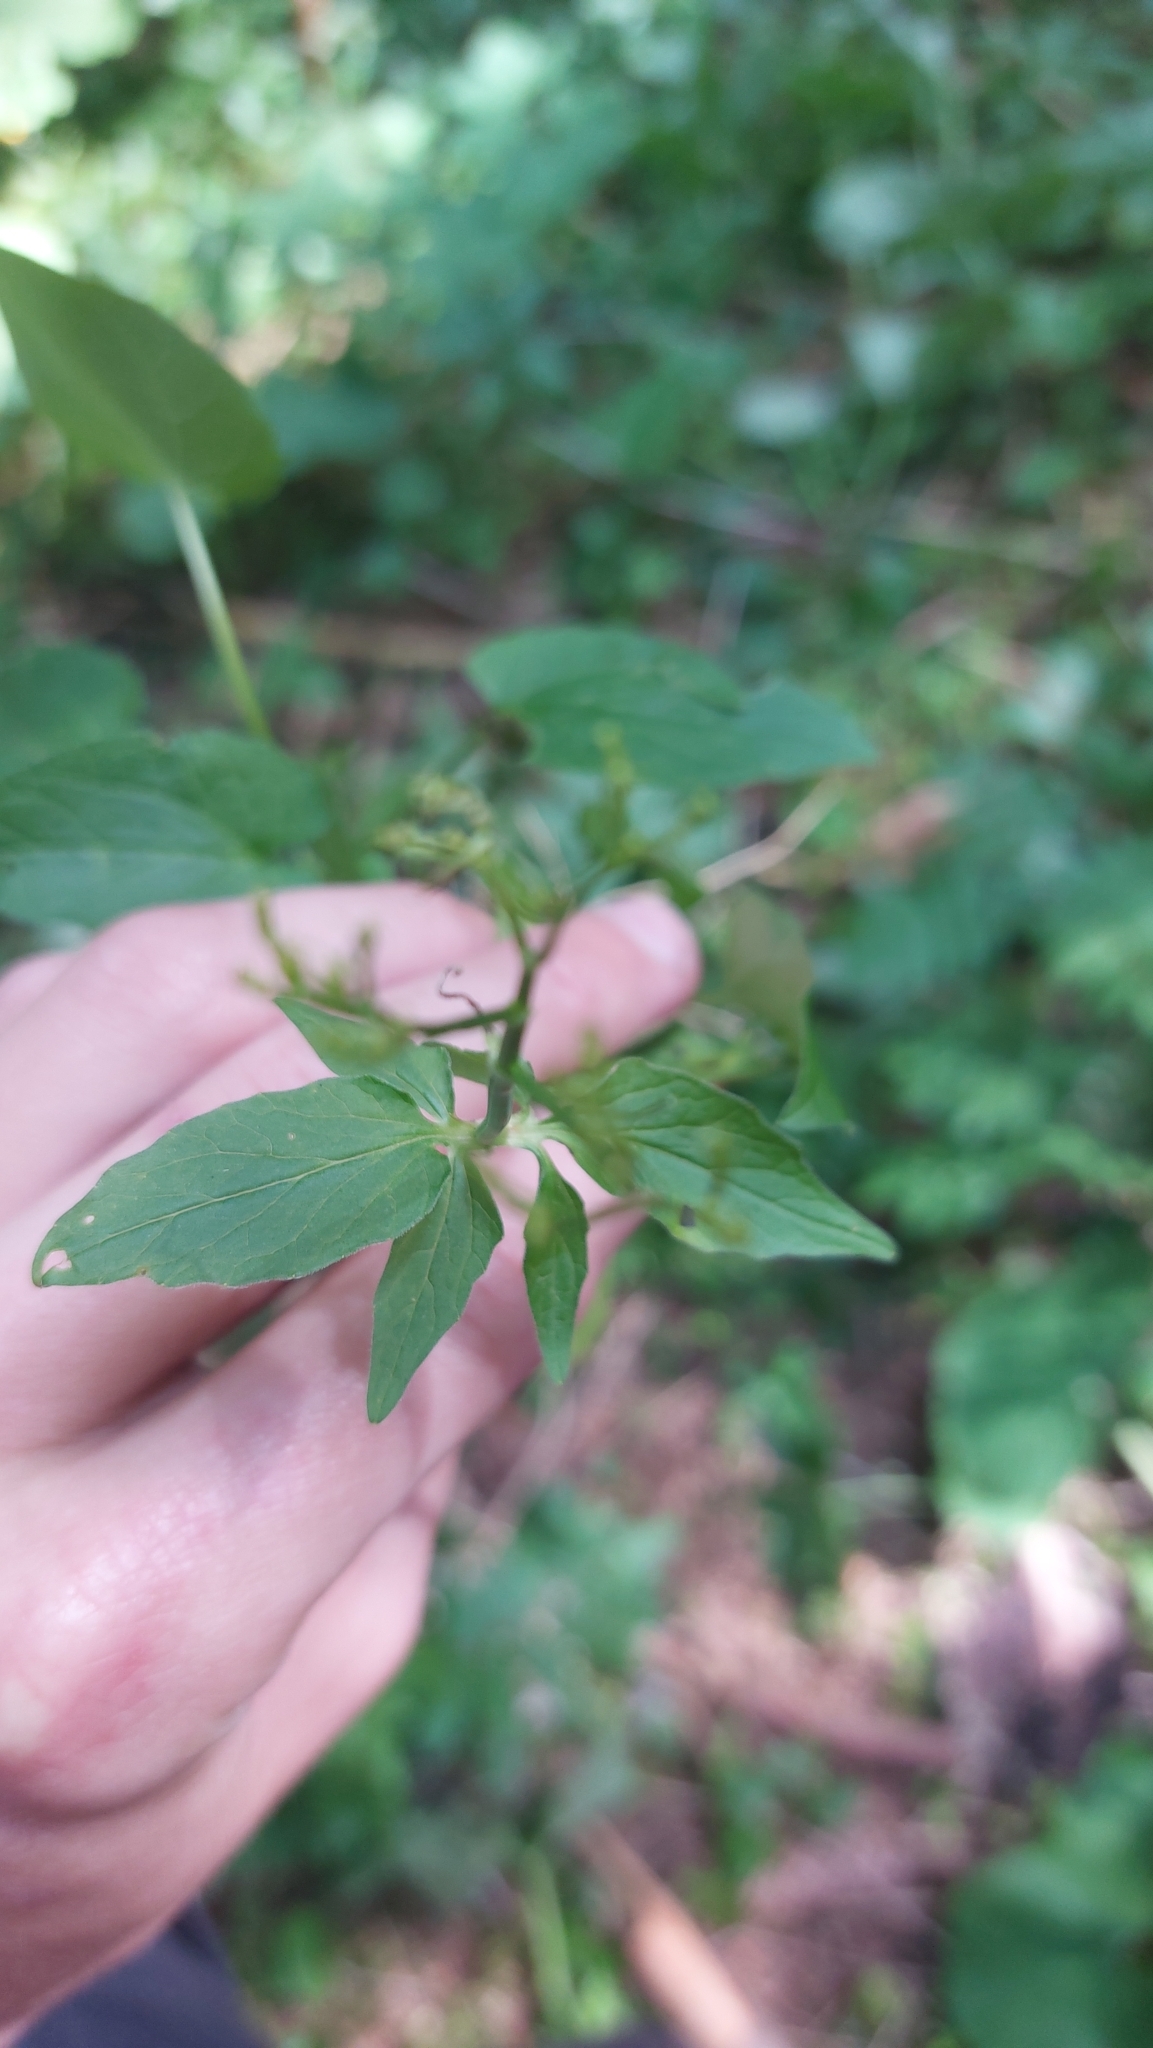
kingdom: Plantae
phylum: Tracheophyta
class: Magnoliopsida
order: Dipsacales
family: Caprifoliaceae
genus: Valeriana
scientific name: Valeriana tripteris
